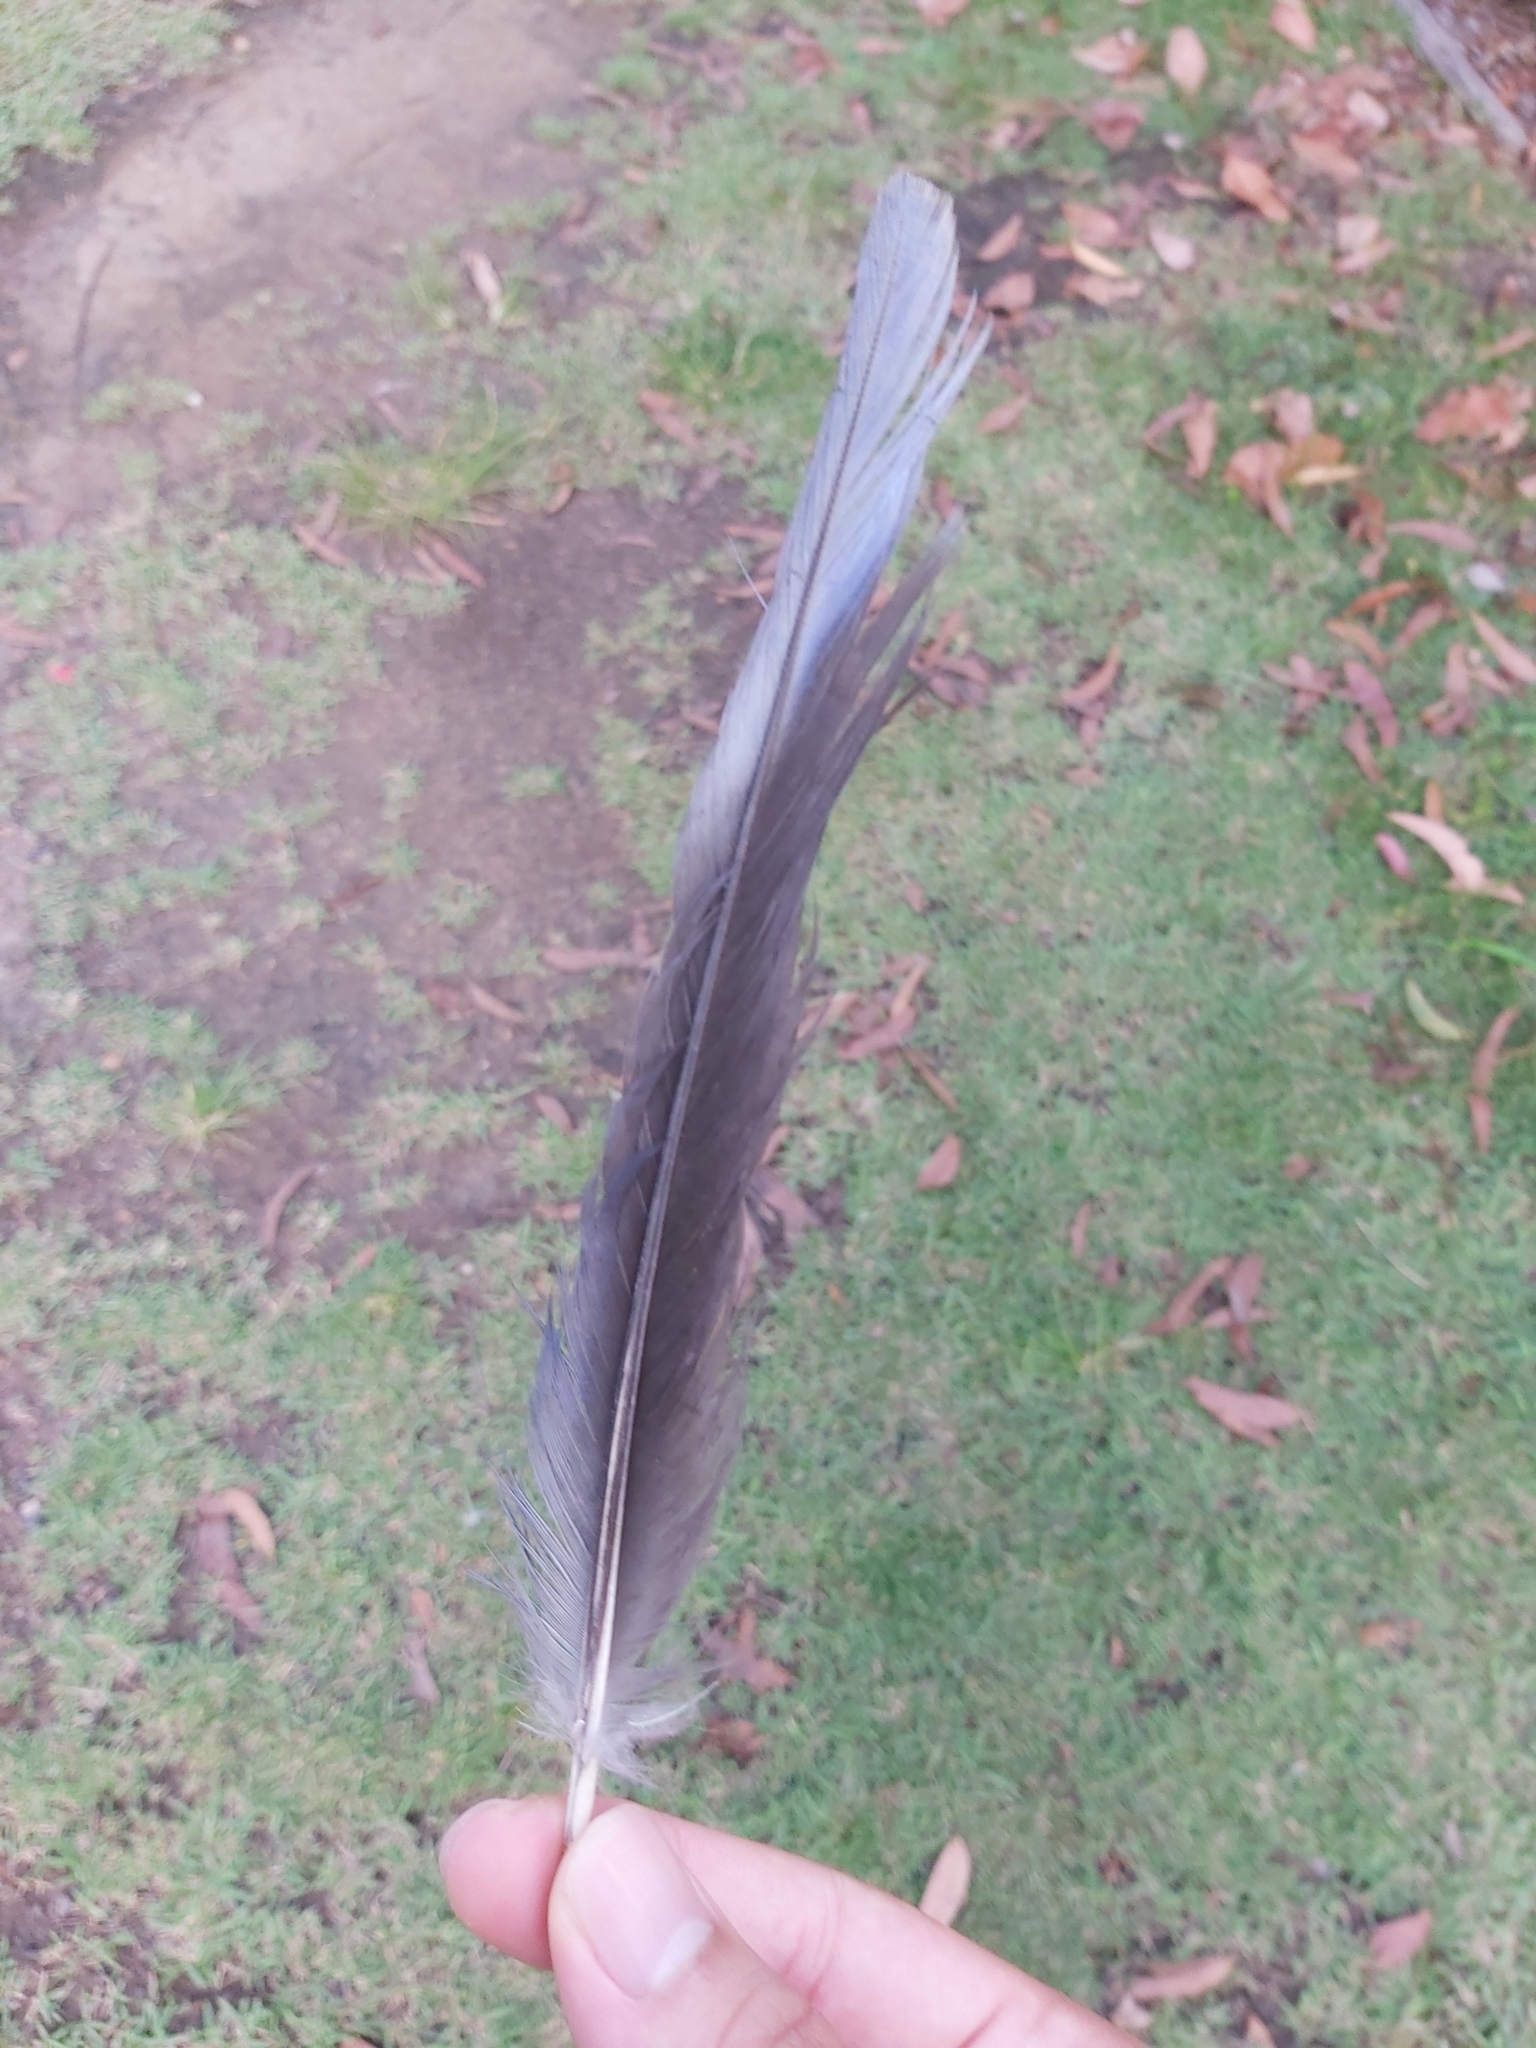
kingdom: Animalia
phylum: Chordata
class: Aves
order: Psittaciformes
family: Psittacidae
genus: Platycercus
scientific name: Platycercus elegans
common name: Crimson rosella
